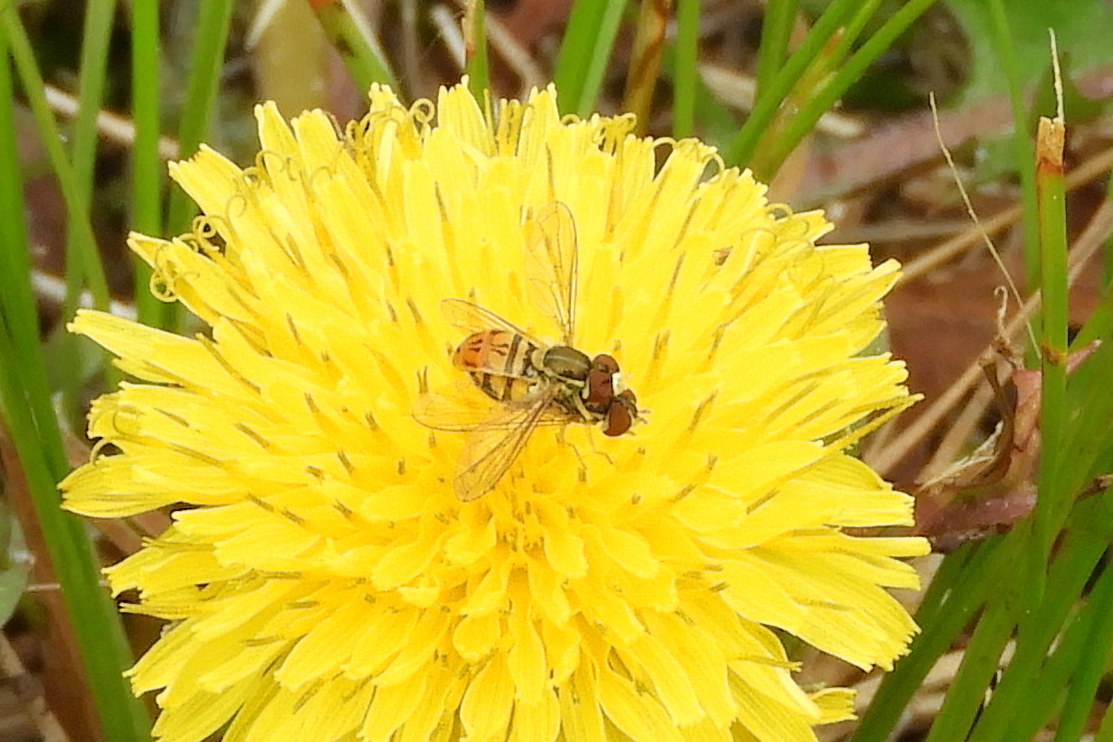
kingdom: Animalia
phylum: Arthropoda
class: Insecta
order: Diptera
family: Syrphidae
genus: Toxomerus
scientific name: Toxomerus marginatus
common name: Syrphid fly
